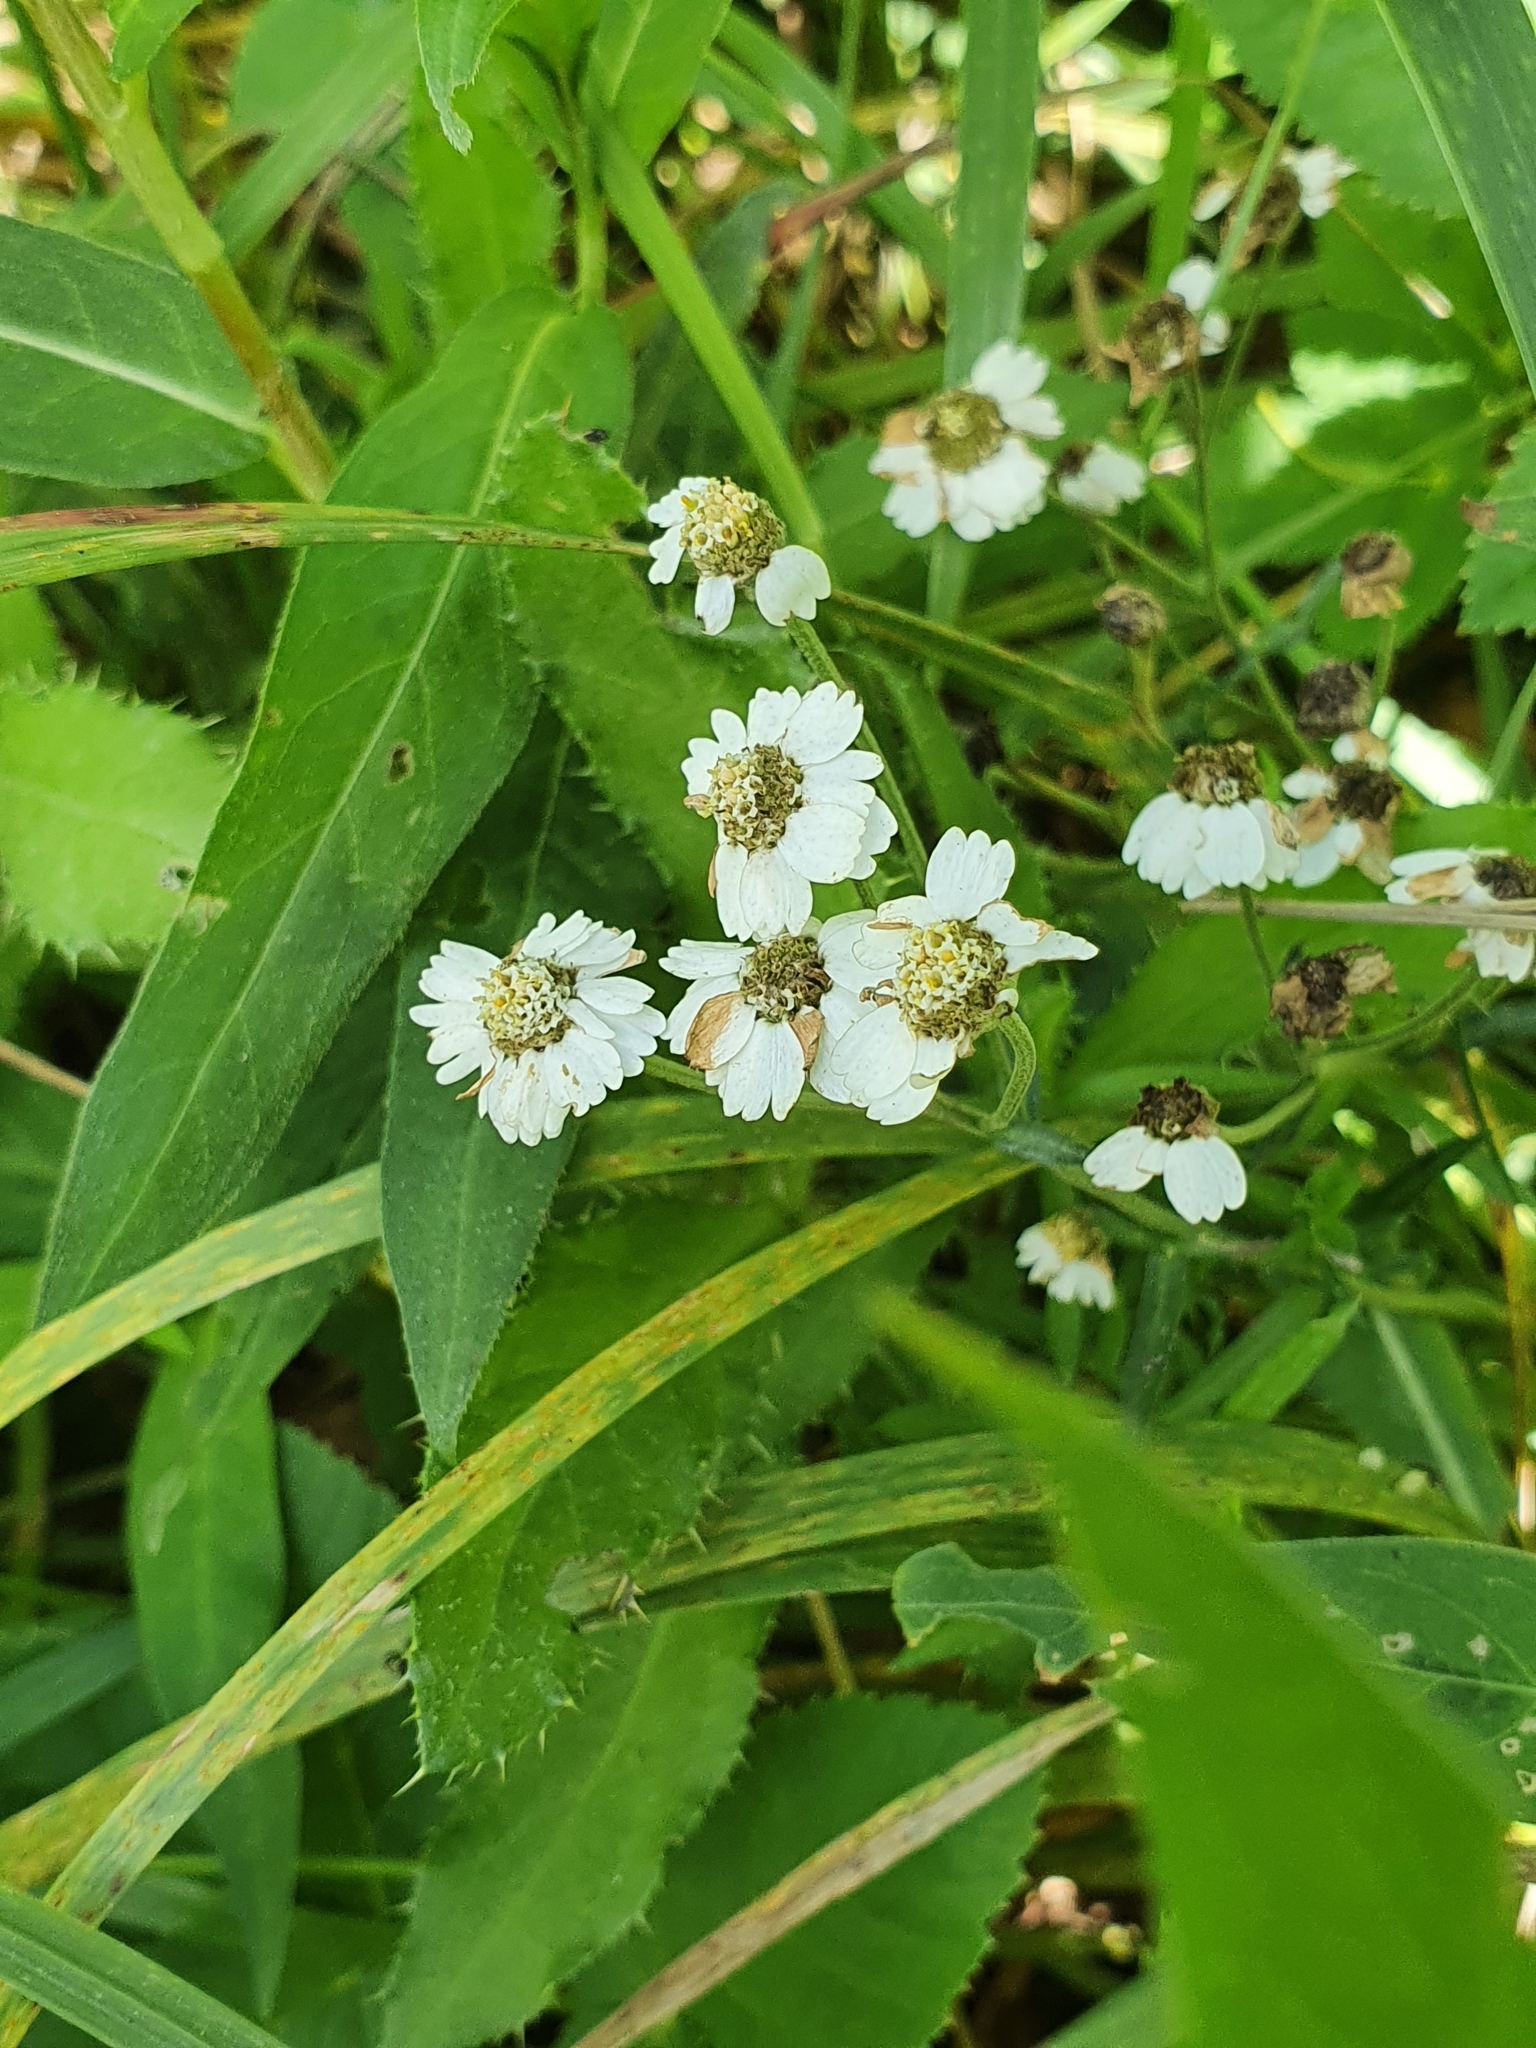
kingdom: Plantae
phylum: Tracheophyta
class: Magnoliopsida
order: Asterales
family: Asteraceae
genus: Achillea
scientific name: Achillea ptarmica
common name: Sneezeweed
